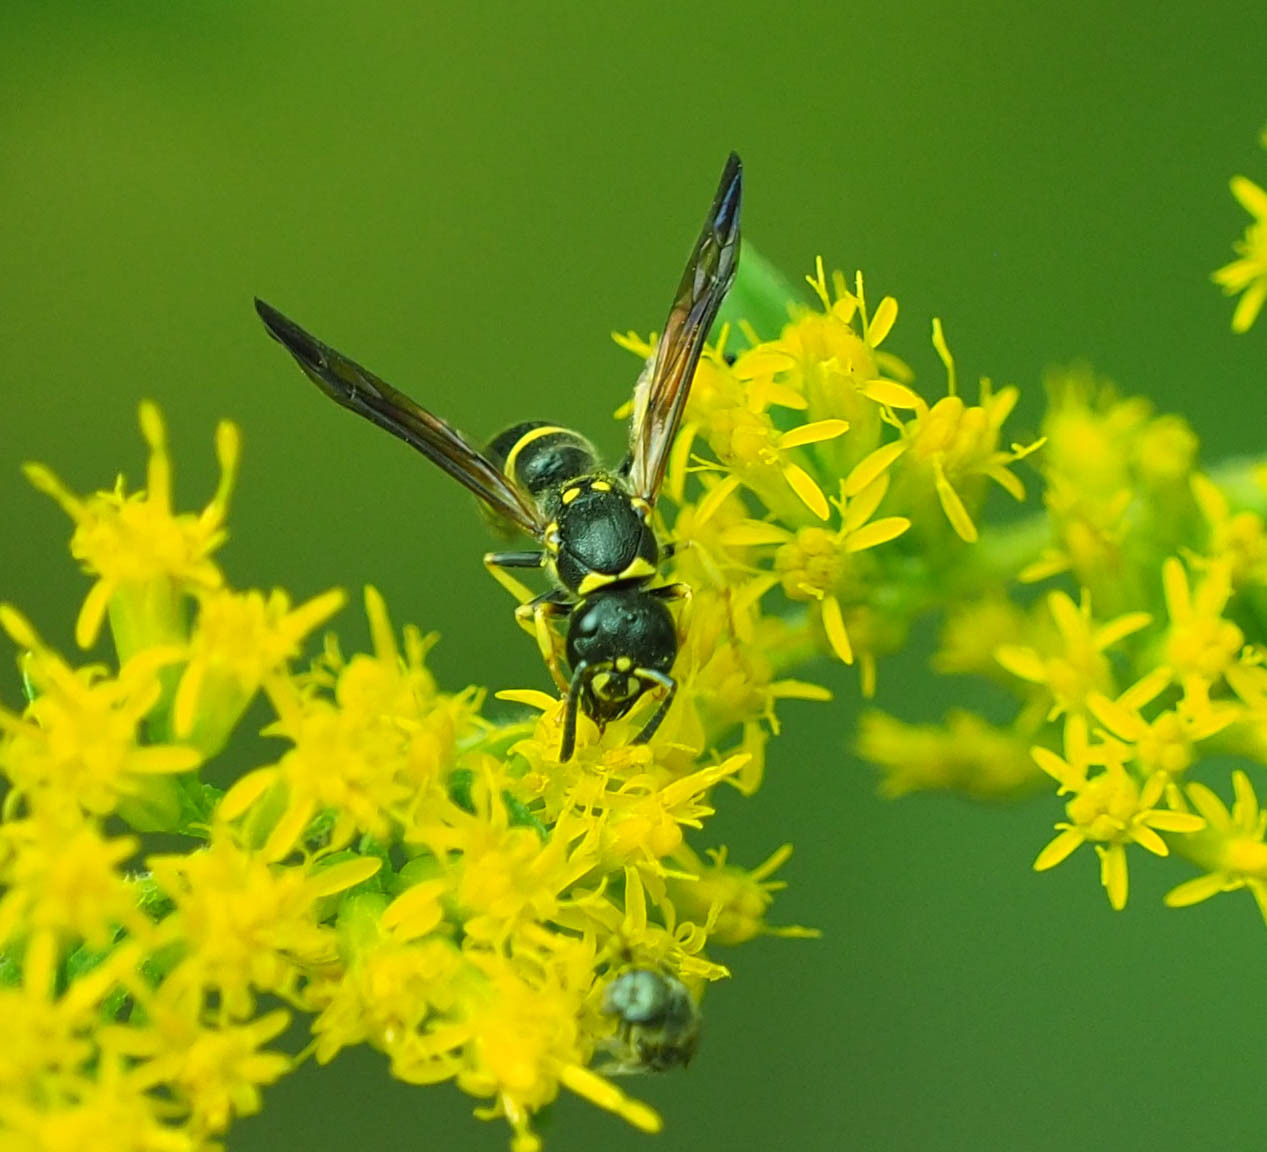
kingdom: Animalia
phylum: Arthropoda
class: Insecta
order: Hymenoptera
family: Vespidae
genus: Ancistrocerus
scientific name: Ancistrocerus adiabatus
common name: Bramble mason wasp
